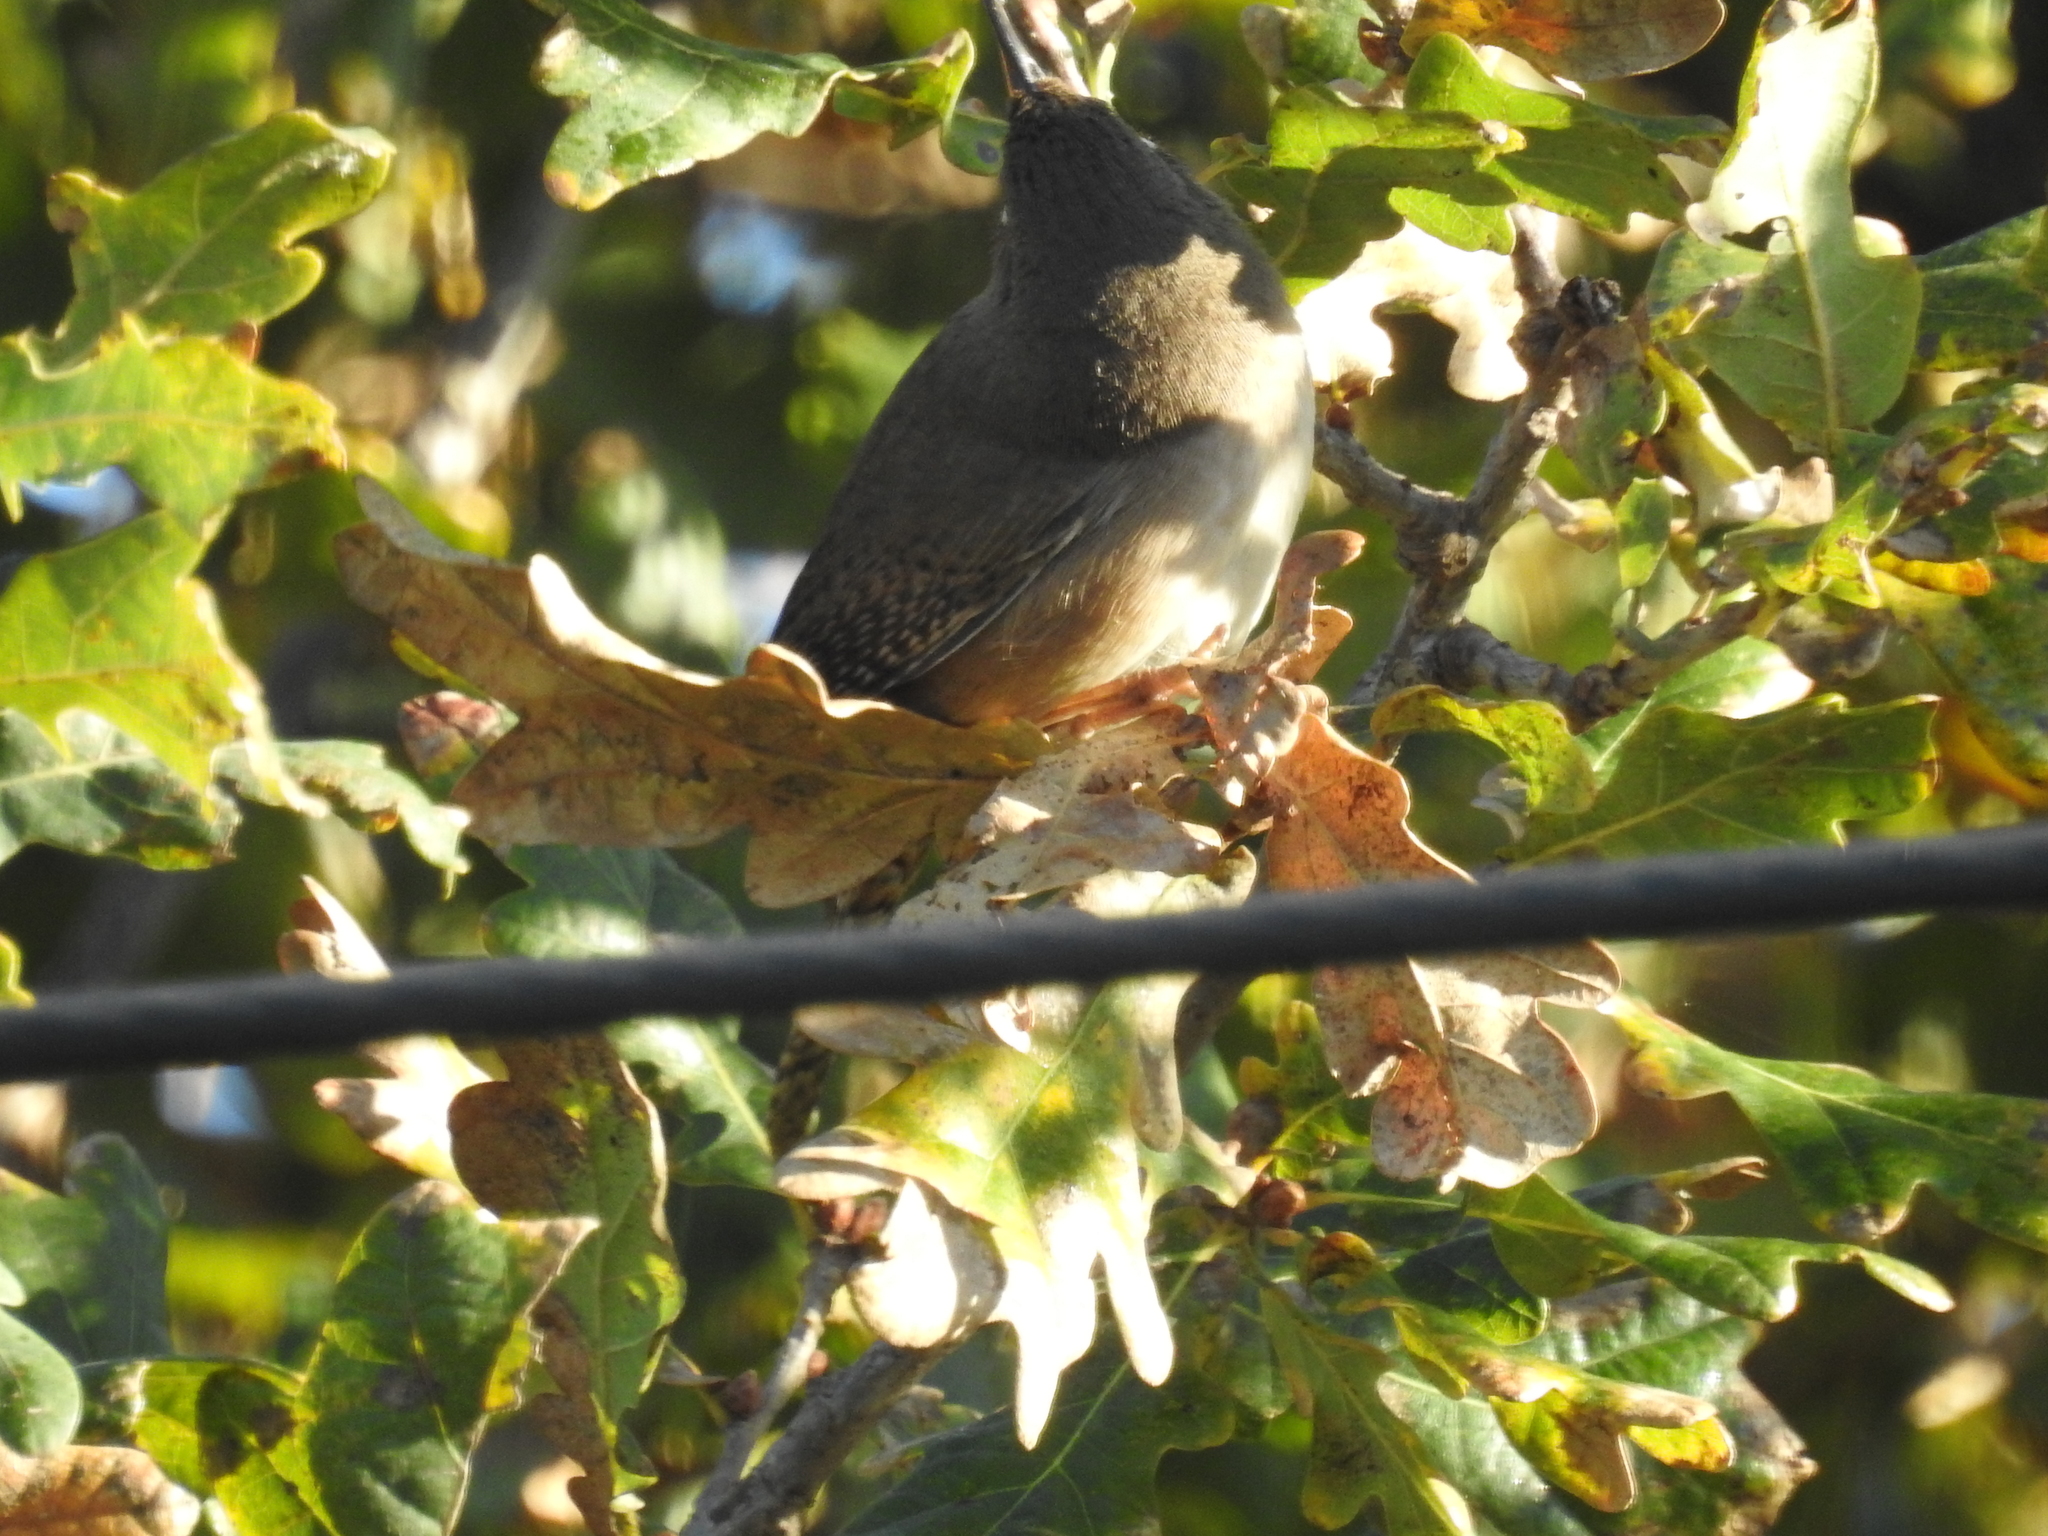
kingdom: Animalia
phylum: Chordata
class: Aves
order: Passeriformes
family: Troglodytidae
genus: Troglodytes
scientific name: Troglodytes aedon
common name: House wren
